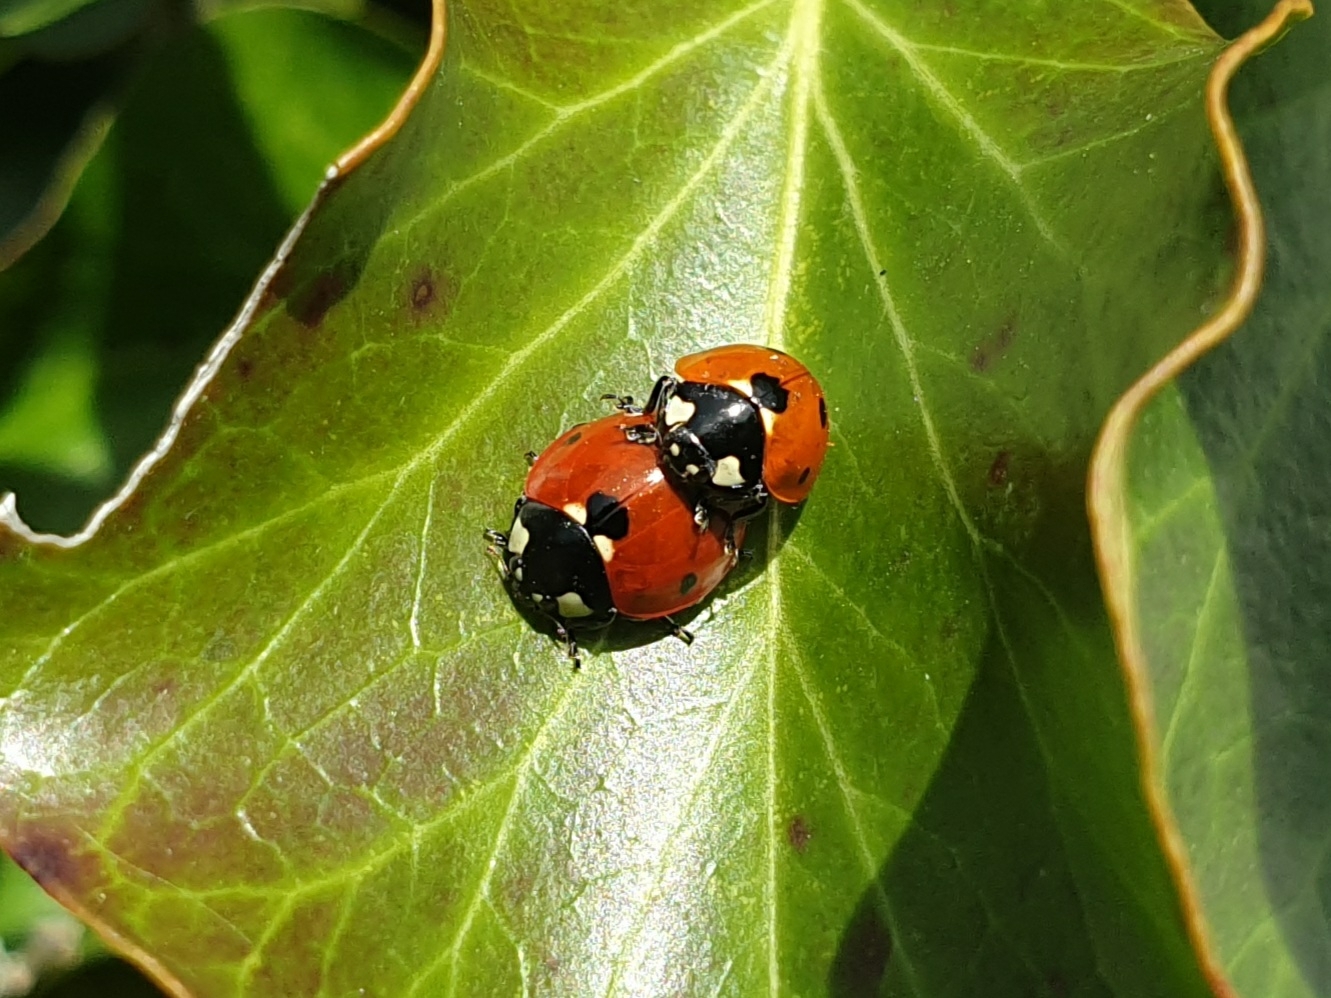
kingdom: Animalia
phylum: Arthropoda
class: Insecta
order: Coleoptera
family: Coccinellidae
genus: Coccinella
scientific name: Coccinella septempunctata
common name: Sevenspotted lady beetle
